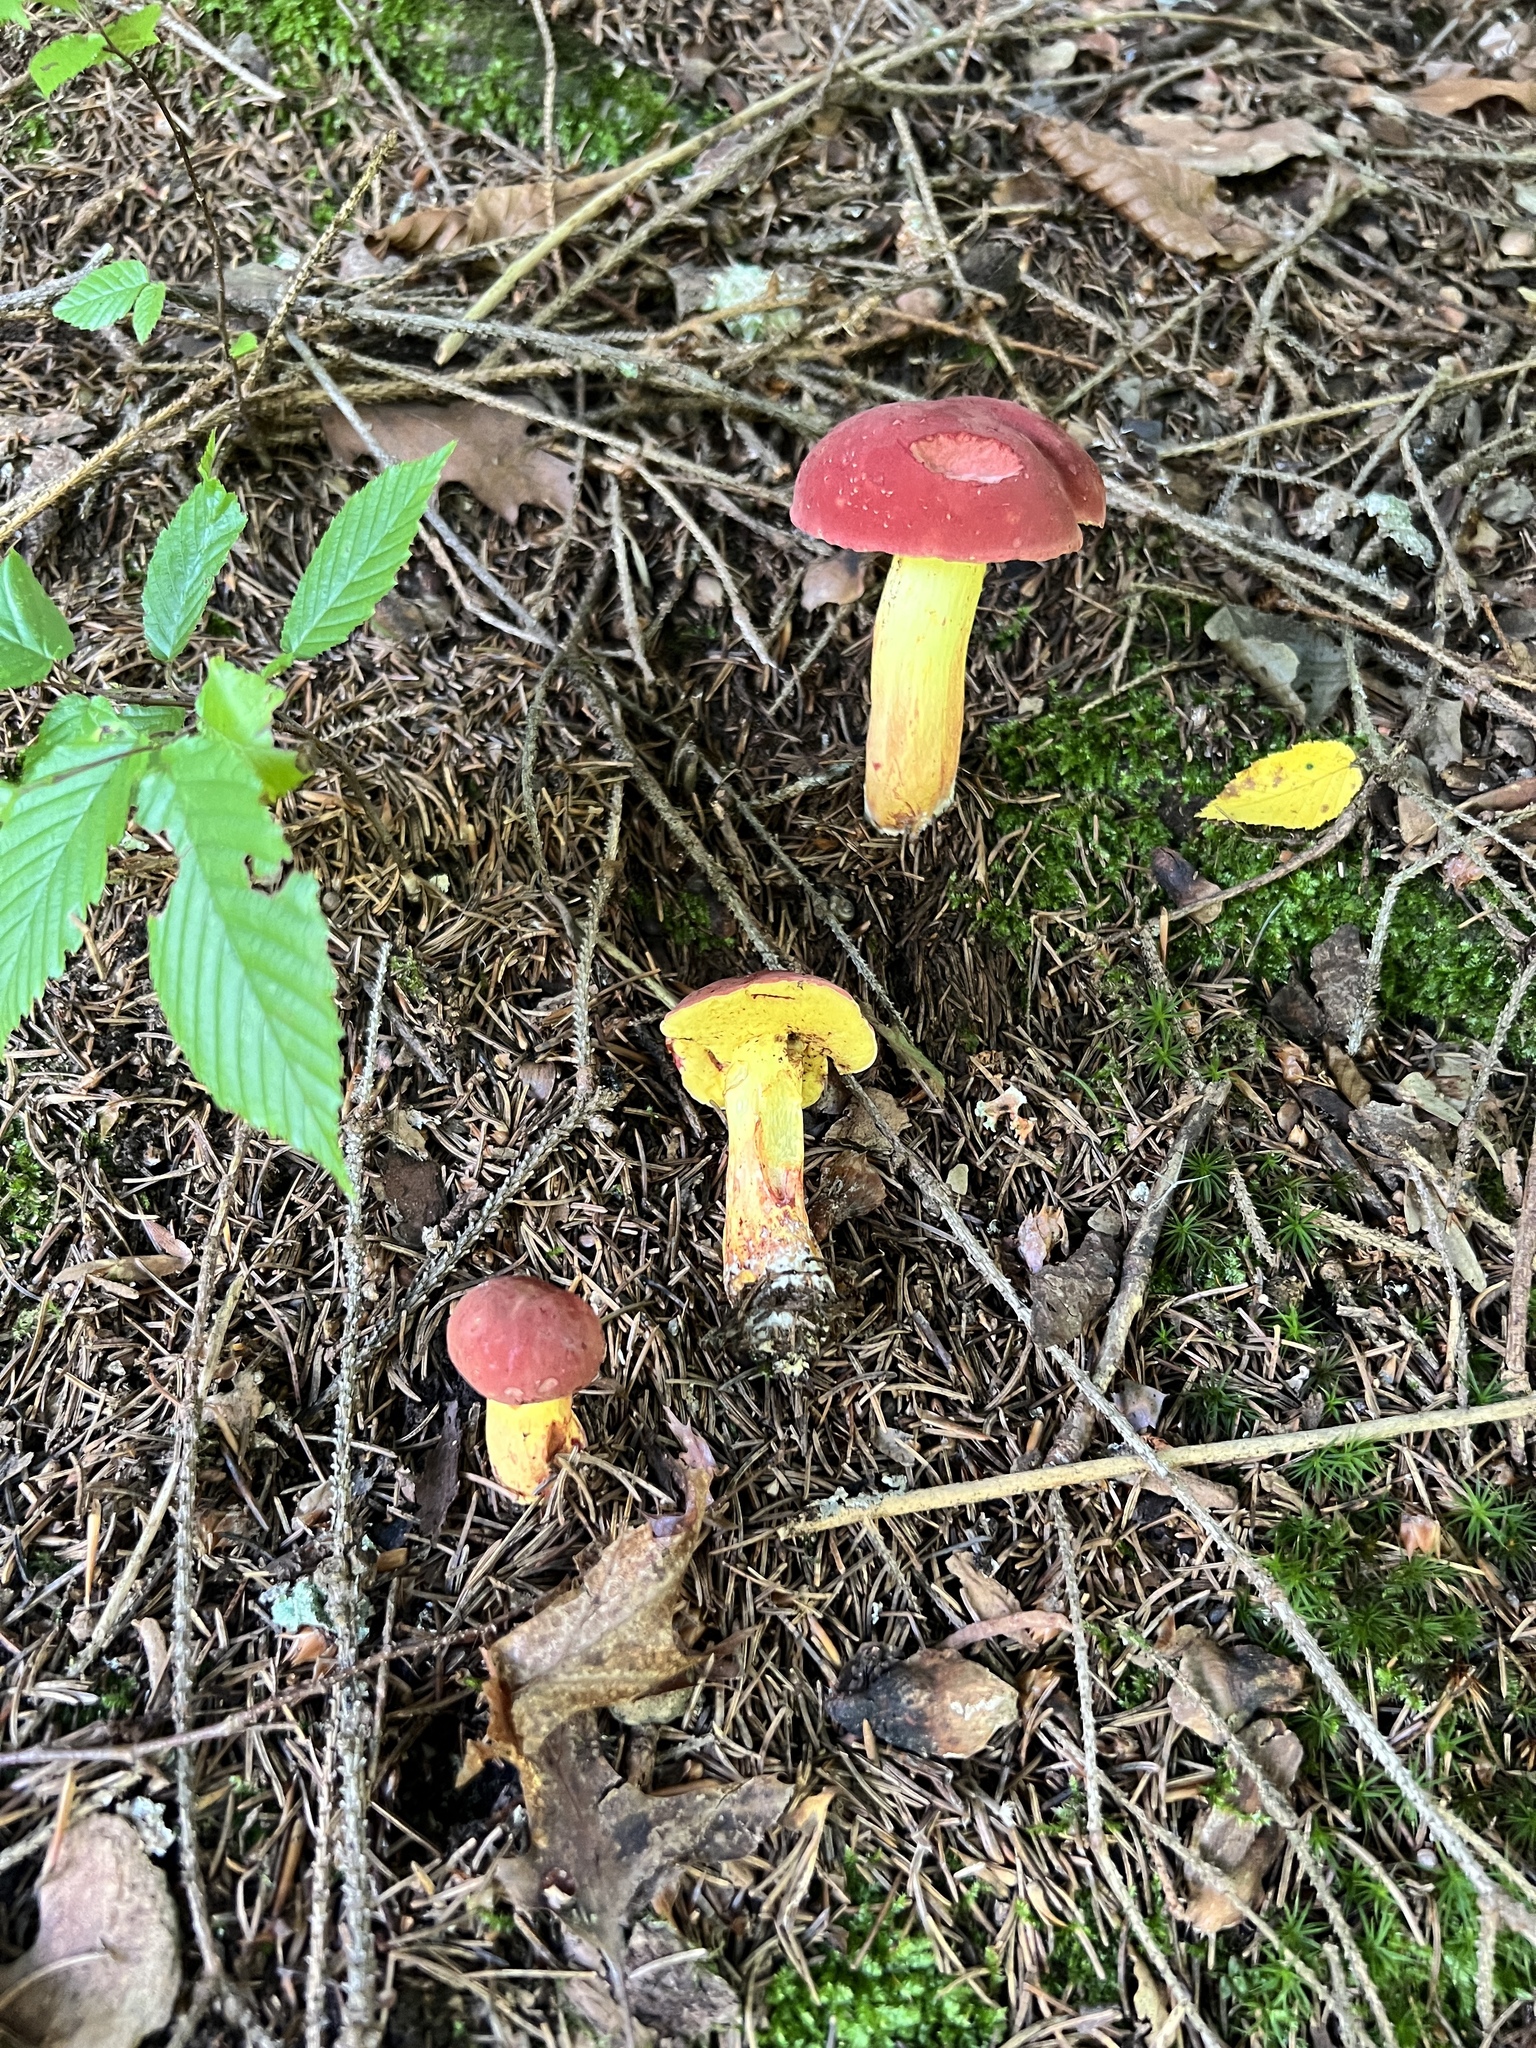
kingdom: Fungi
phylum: Basidiomycota
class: Agaricomycetes
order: Boletales
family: Boletaceae
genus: Boletus
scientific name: Boletus roodyi
